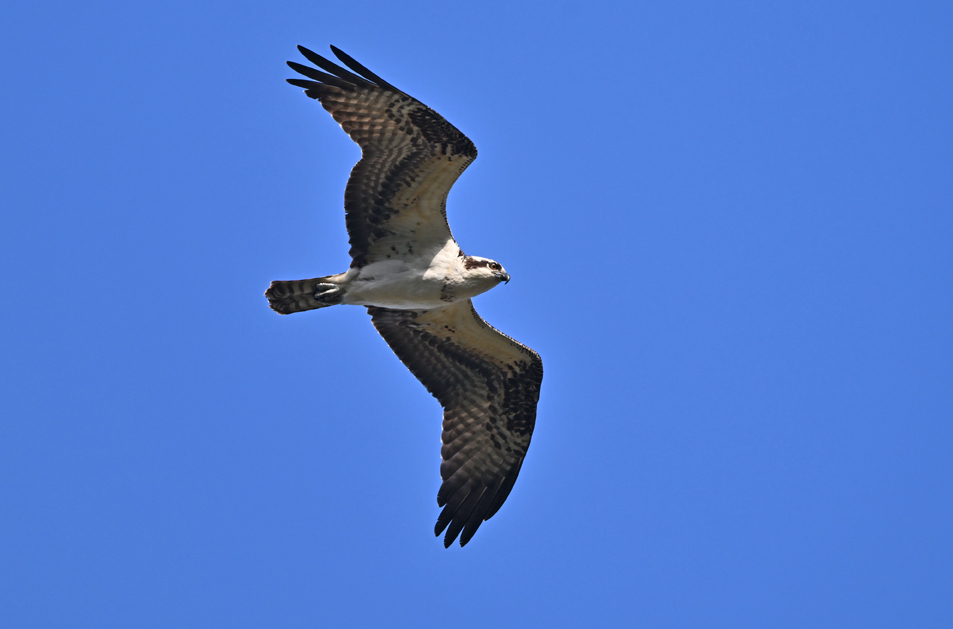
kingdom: Animalia
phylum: Chordata
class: Aves
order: Accipitriformes
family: Pandionidae
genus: Pandion
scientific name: Pandion haliaetus
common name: Osprey
